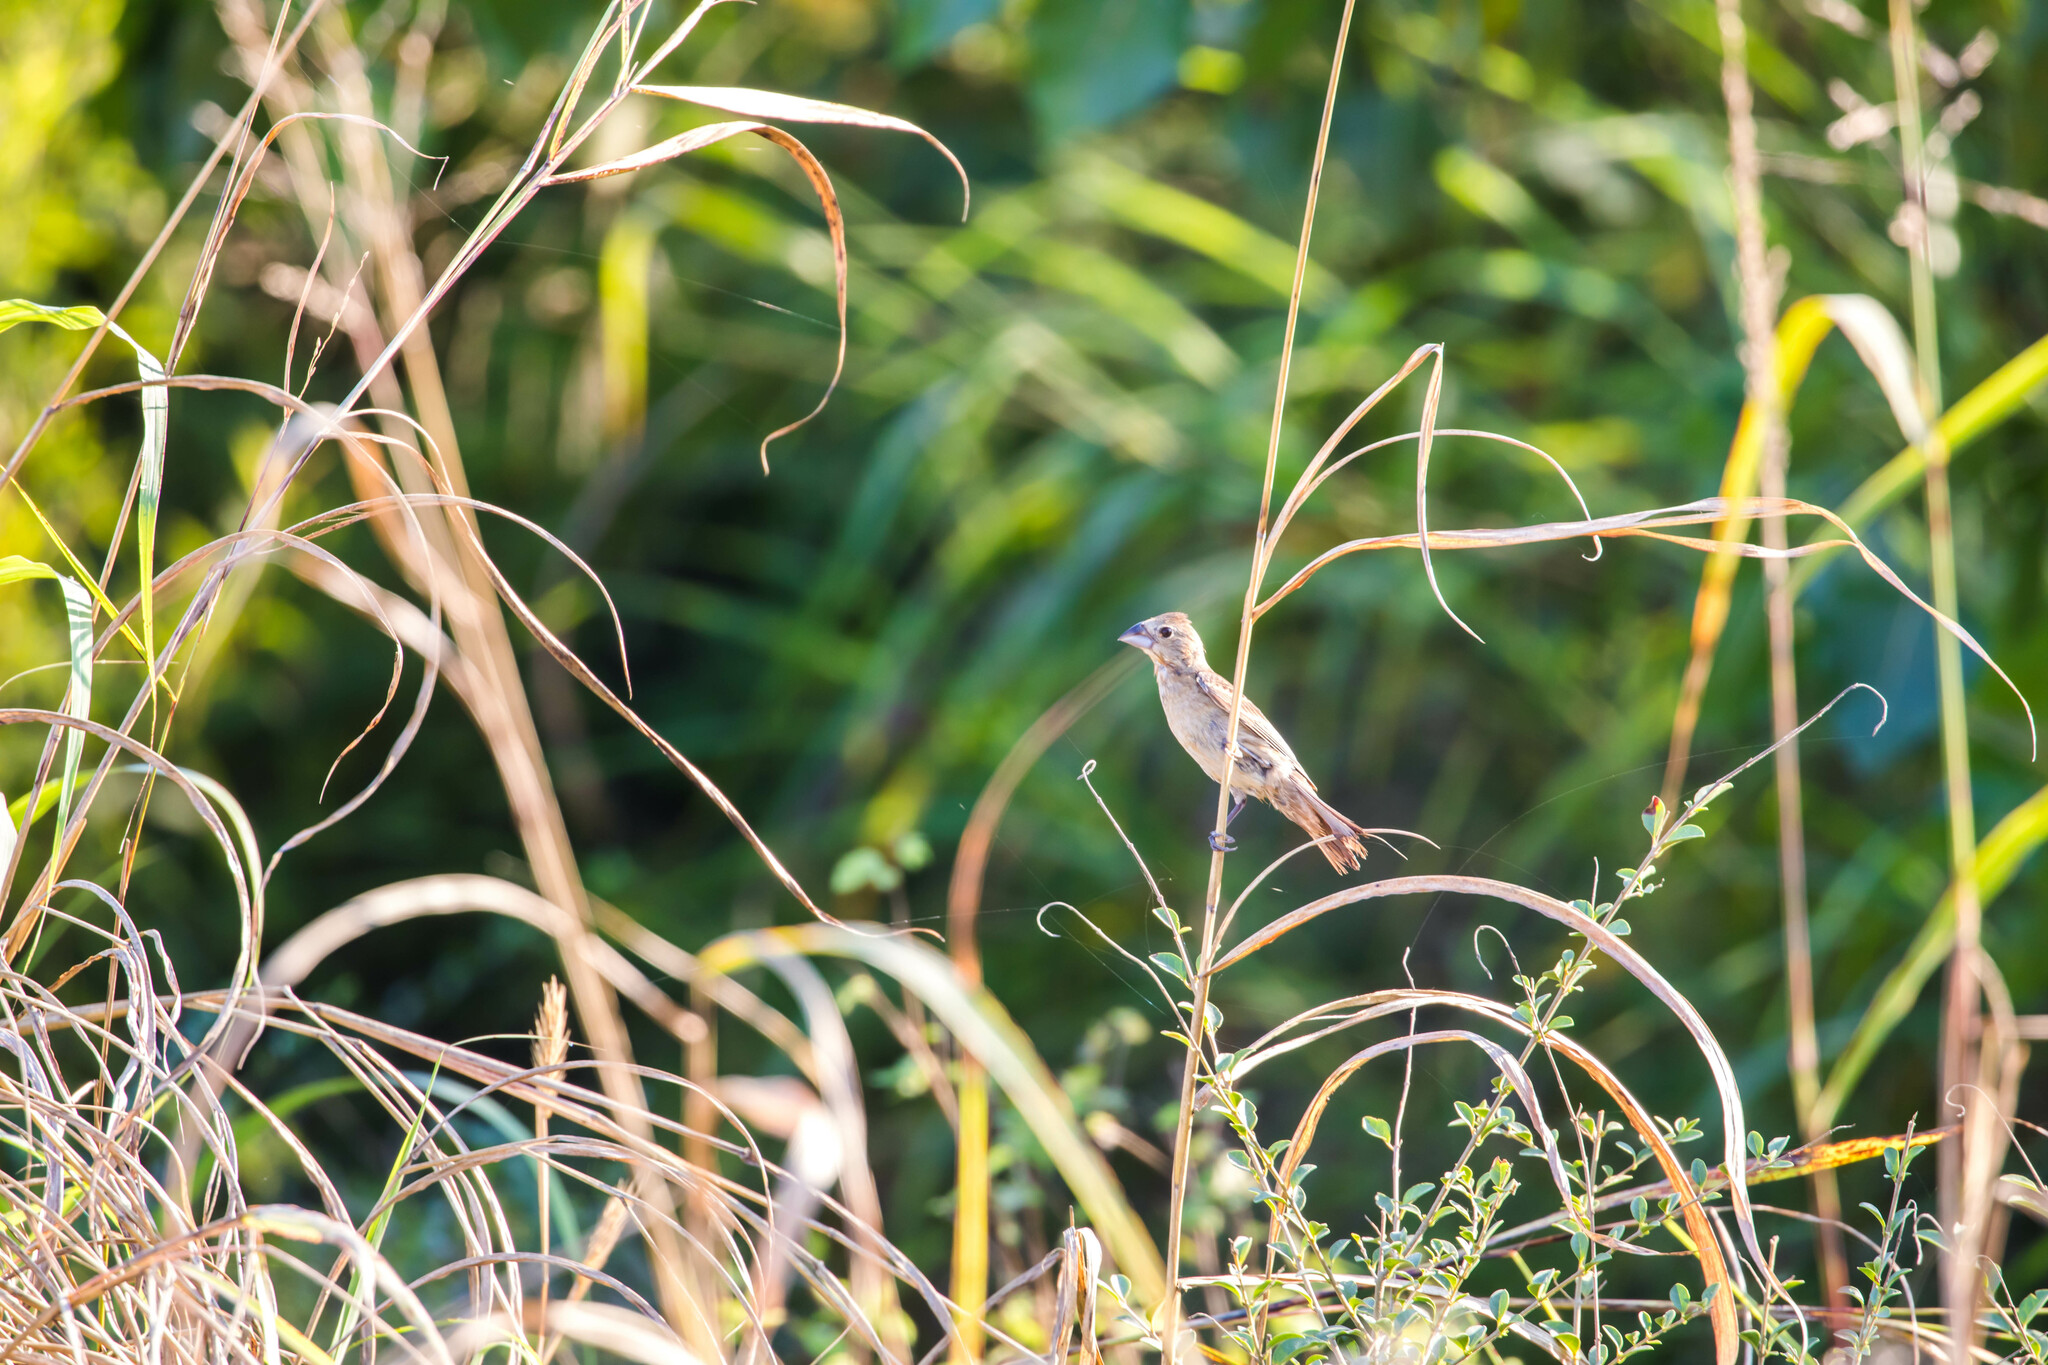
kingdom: Animalia
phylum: Chordata
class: Aves
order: Passeriformes
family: Cardinalidae
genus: Passerina
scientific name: Passerina caerulea
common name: Blue grosbeak
